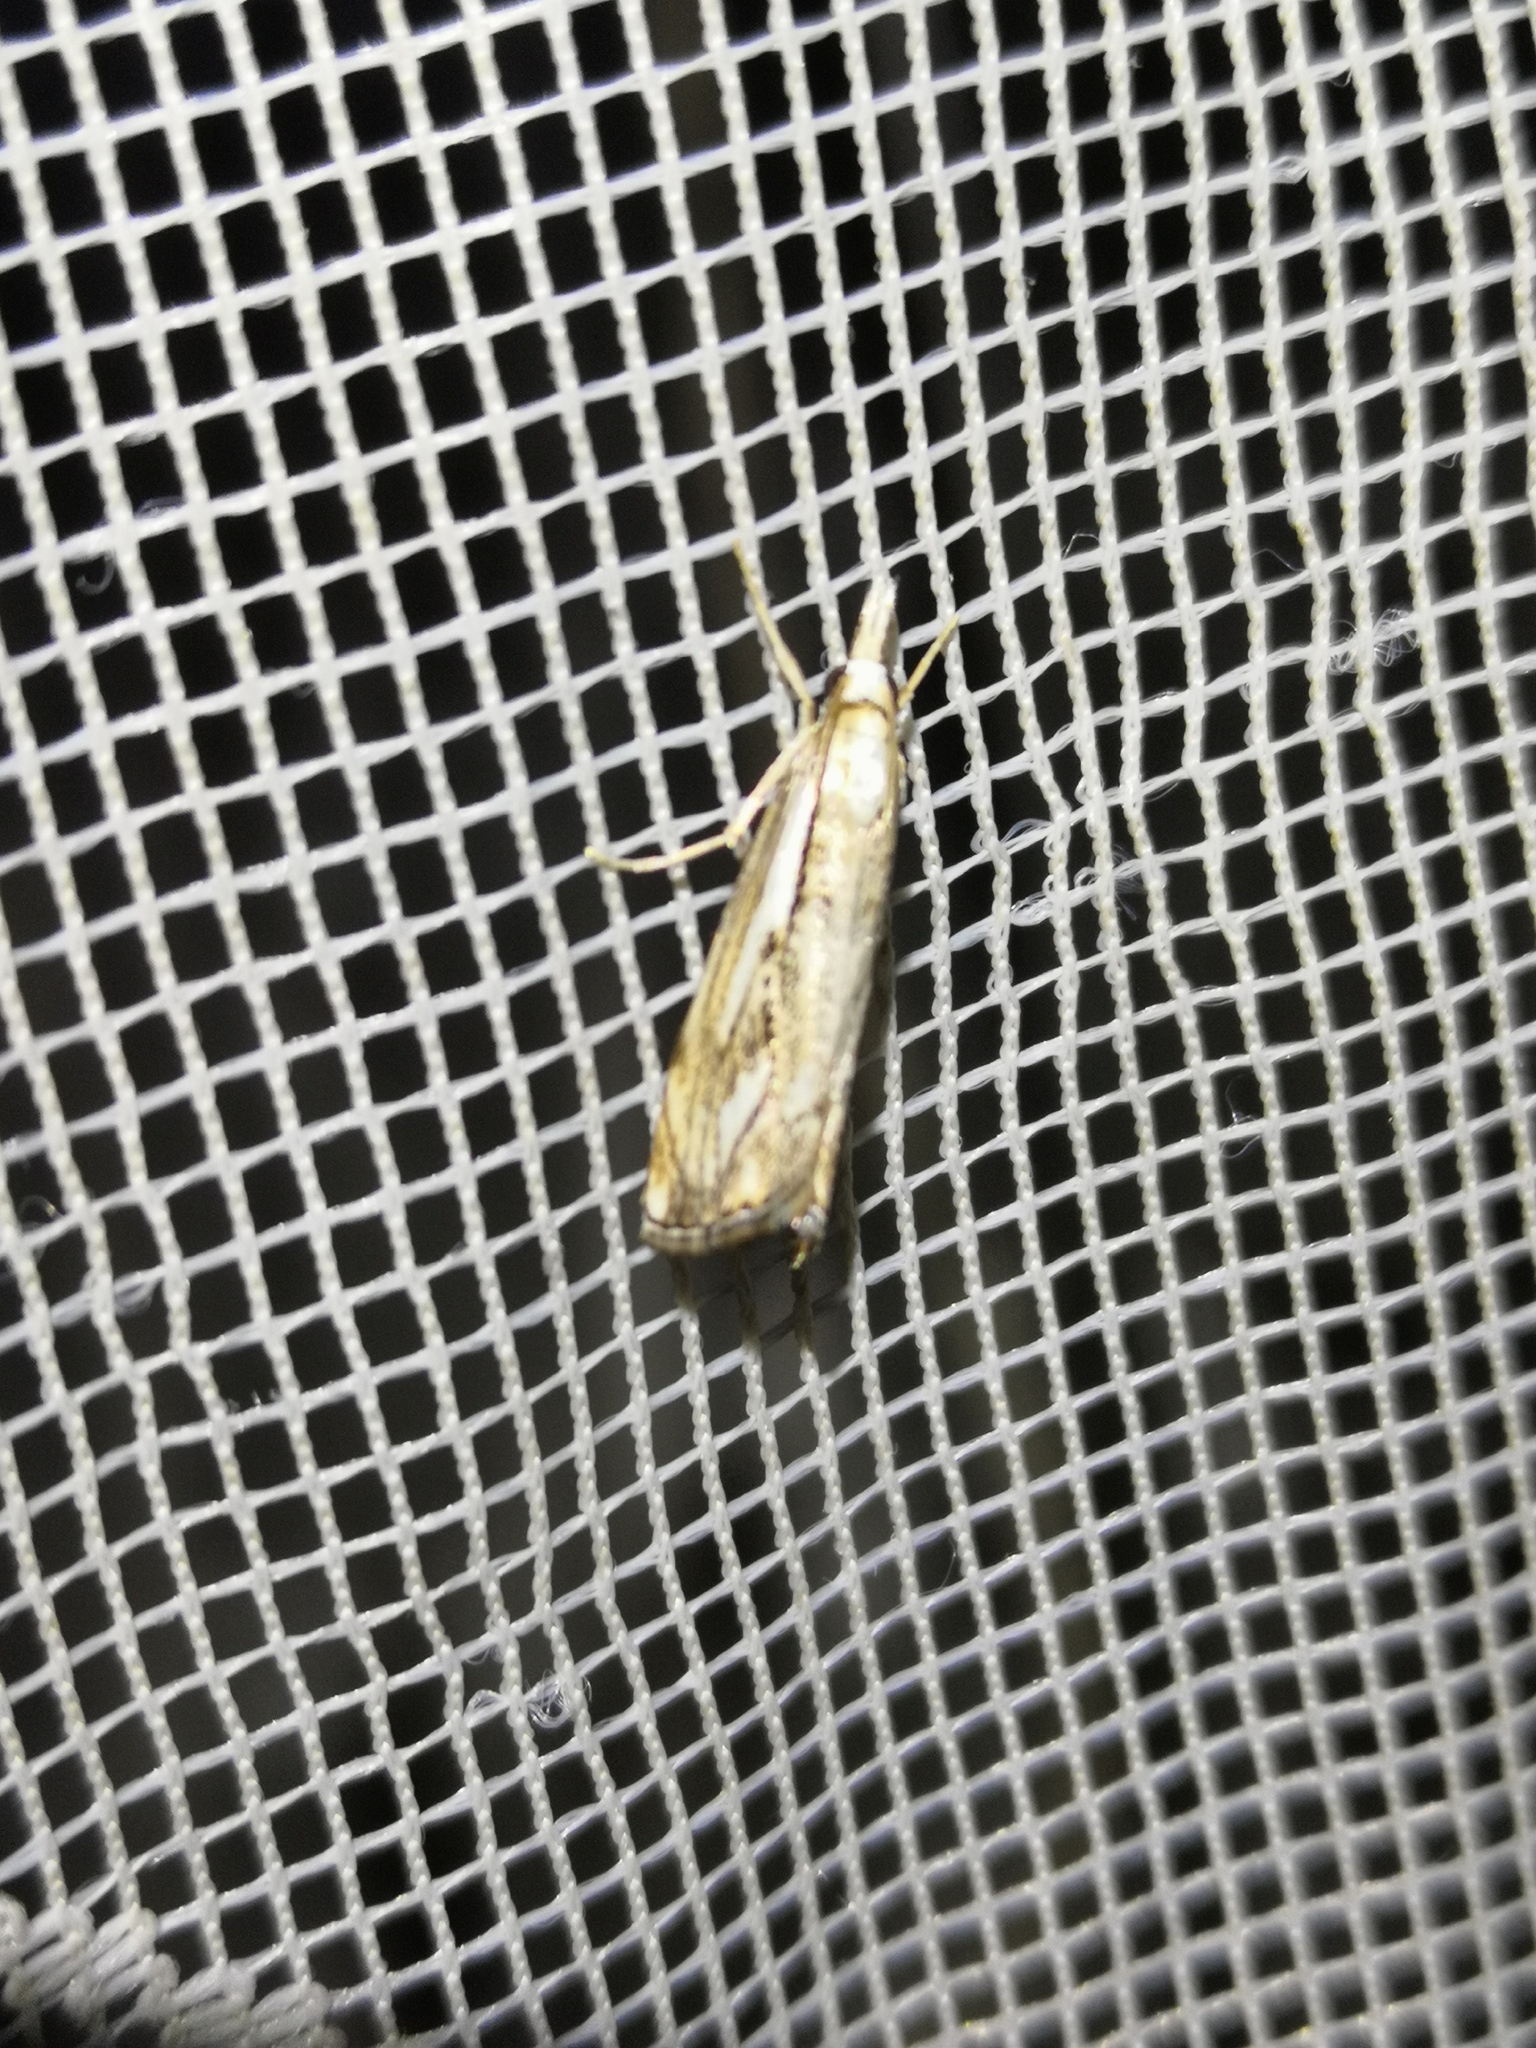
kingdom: Animalia
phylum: Arthropoda
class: Insecta
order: Lepidoptera
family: Crambidae
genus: Catoptria
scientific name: Catoptria falsella
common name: Chequered grass-veneer
